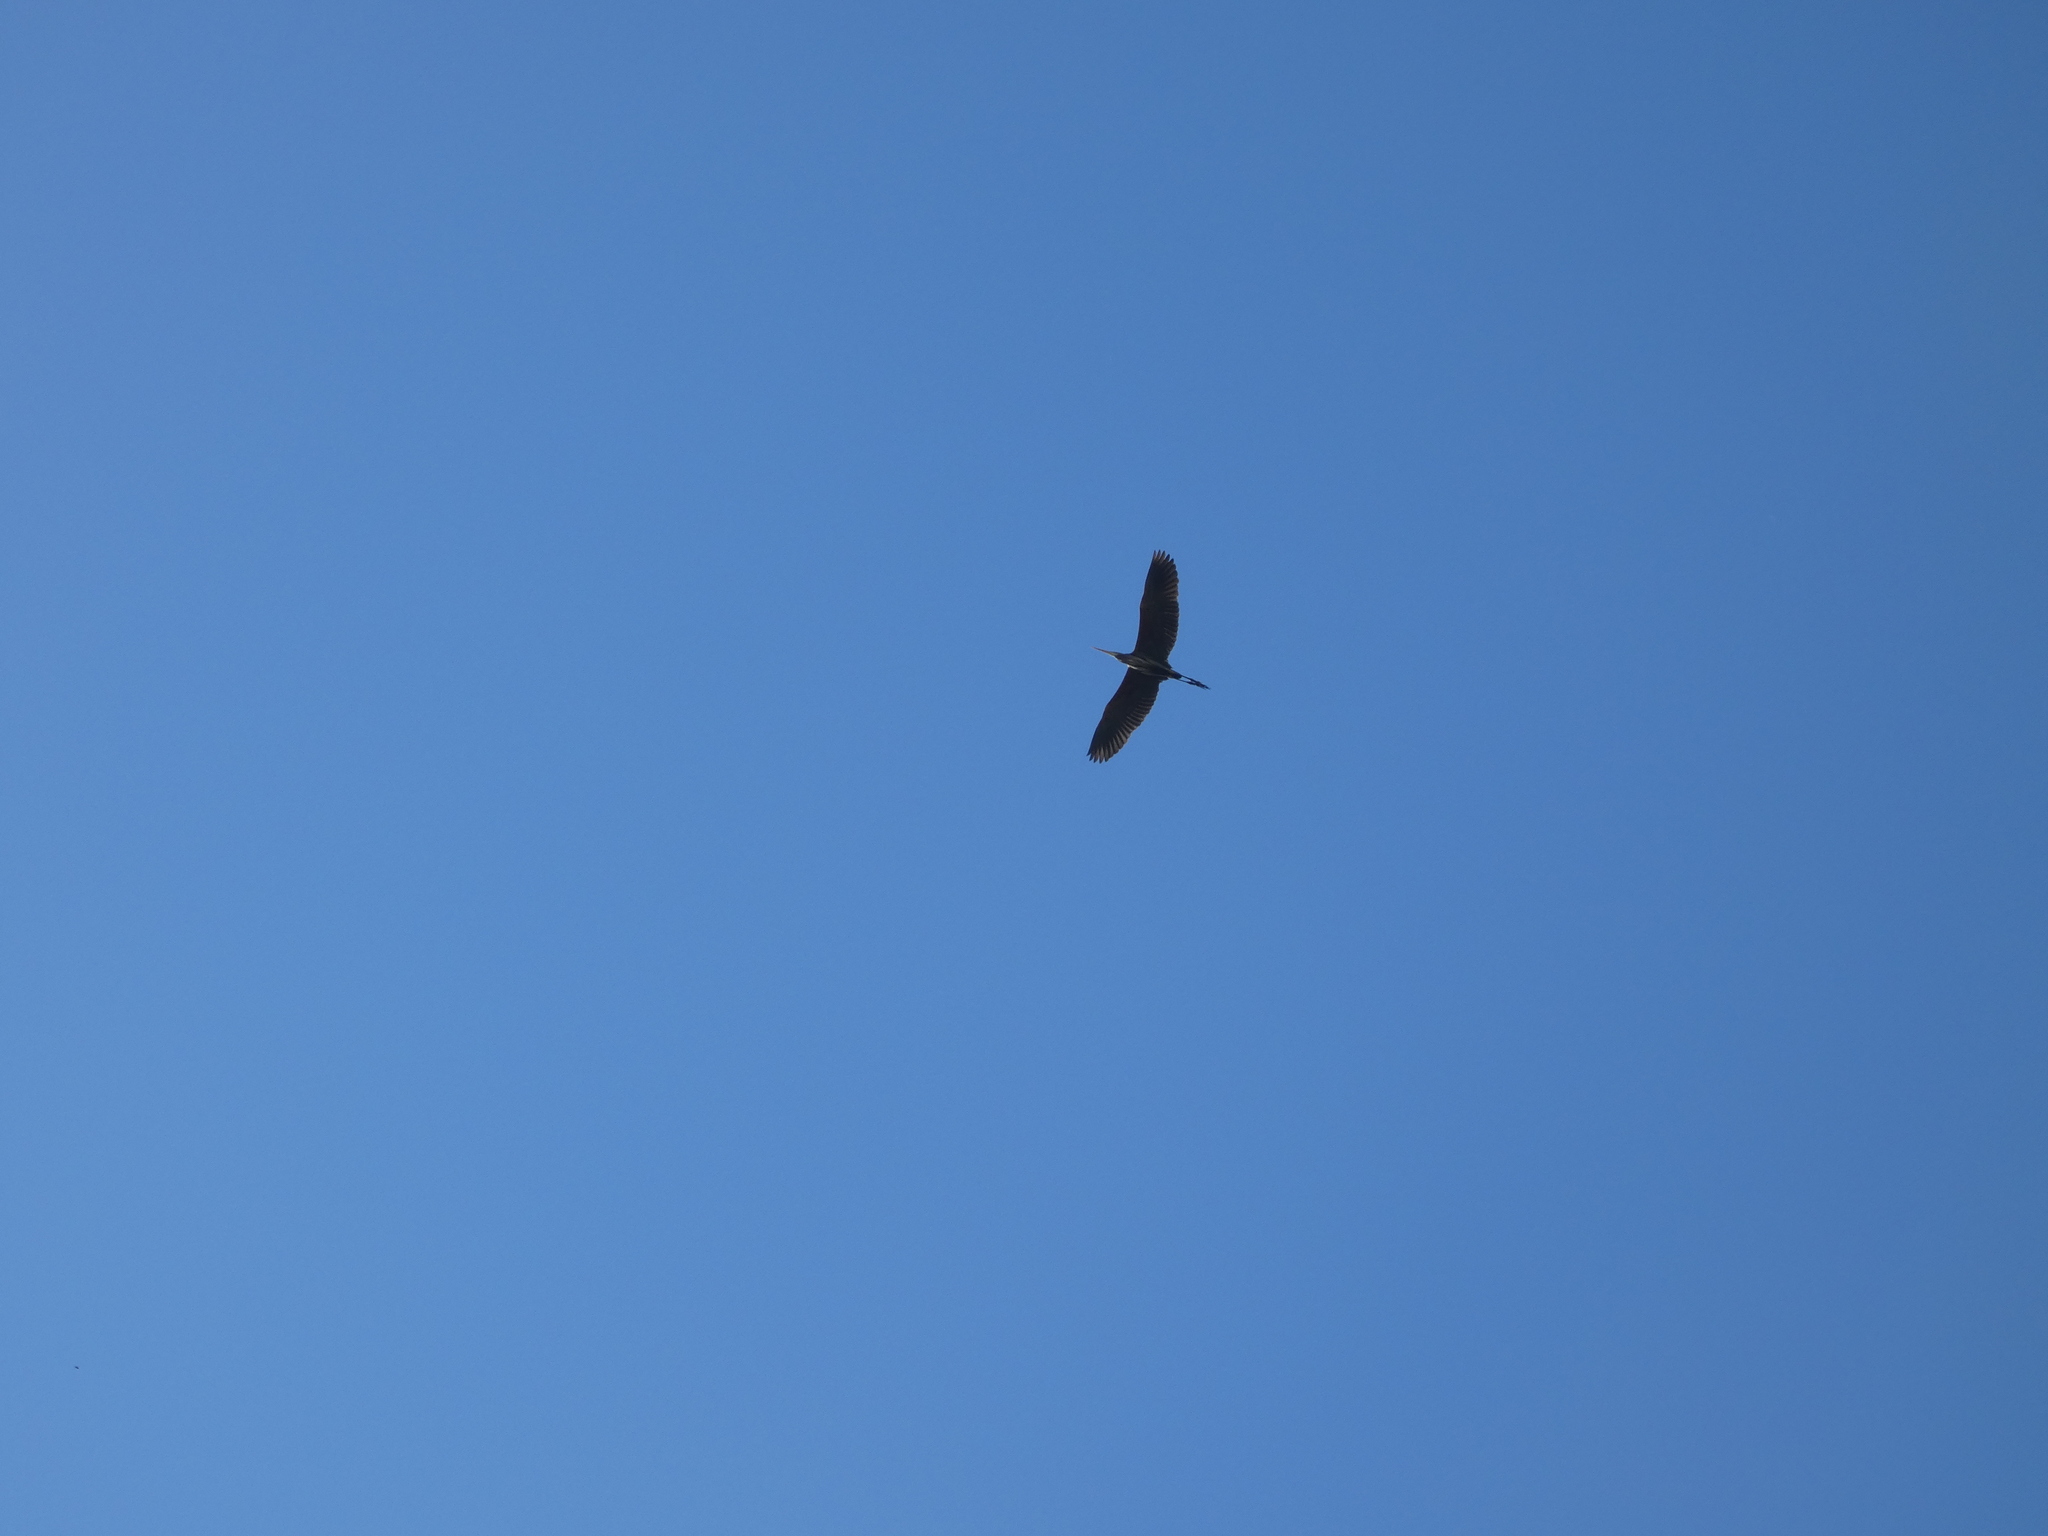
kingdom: Animalia
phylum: Chordata
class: Aves
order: Pelecaniformes
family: Ardeidae
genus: Ardea
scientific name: Ardea purpurea
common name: Purple heron
